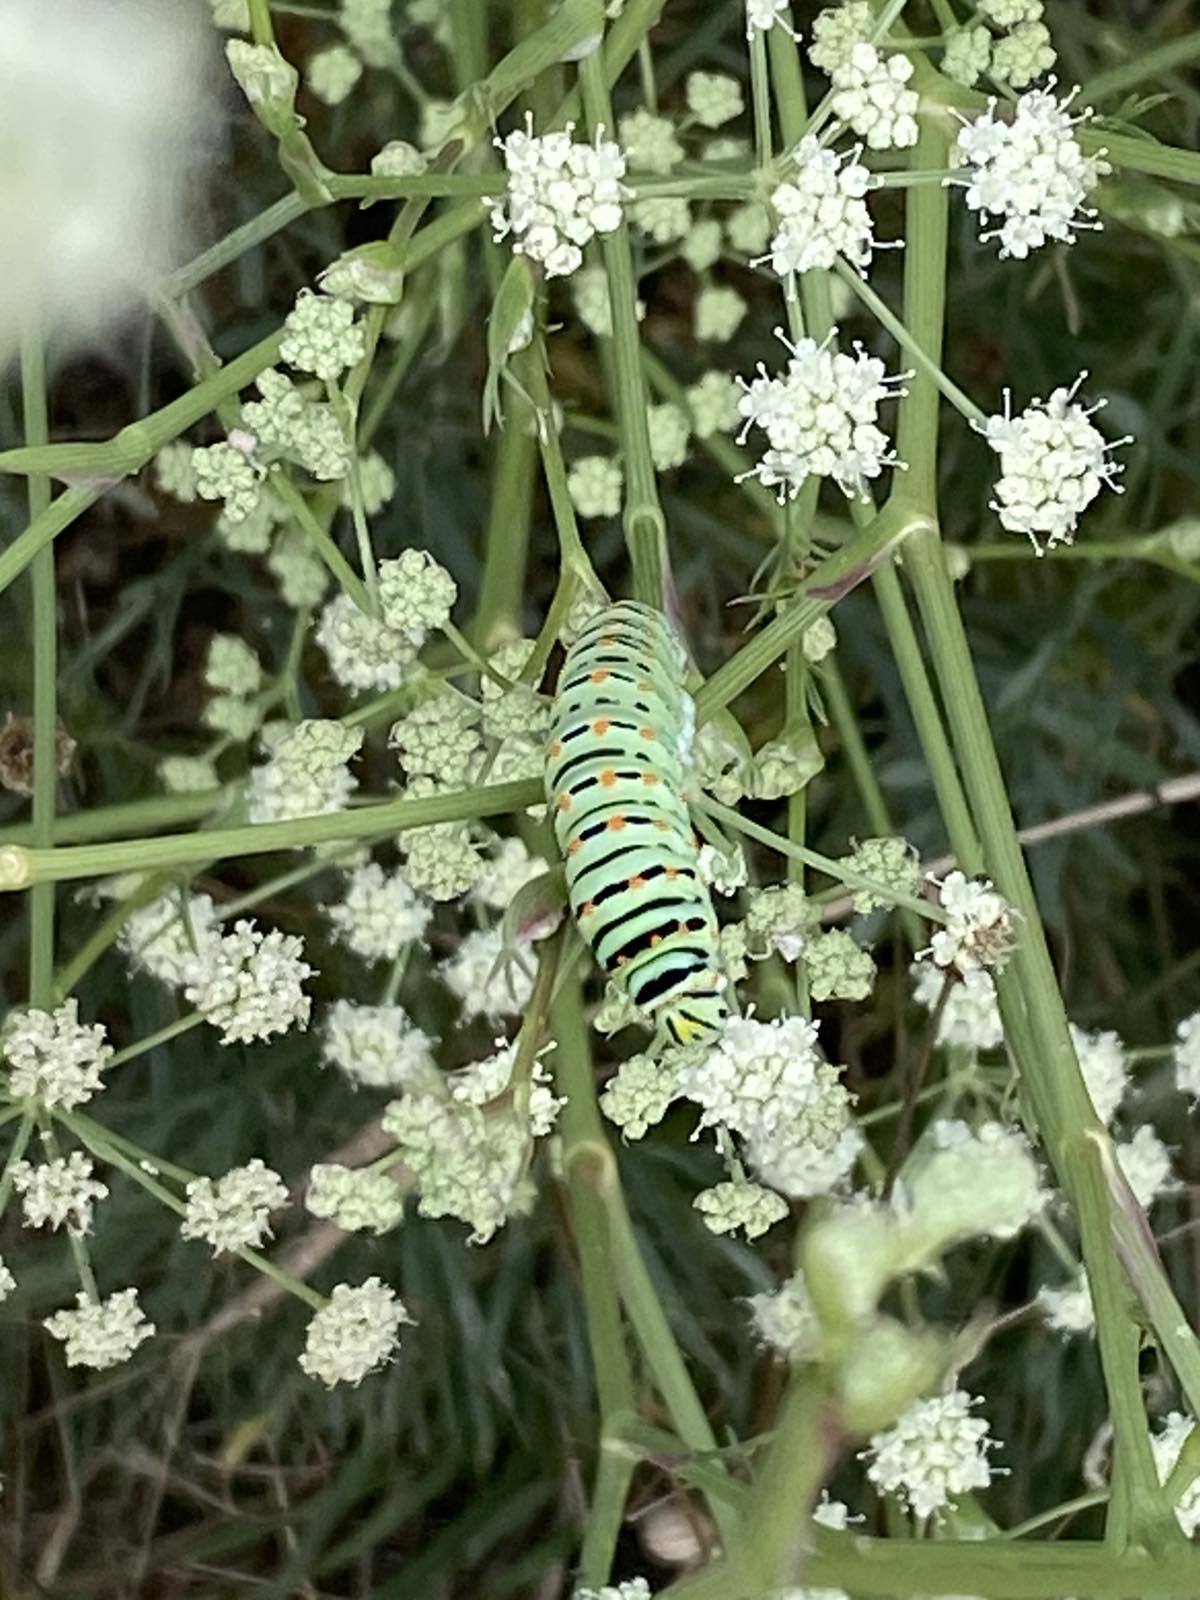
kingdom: Animalia
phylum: Arthropoda
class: Insecta
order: Lepidoptera
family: Papilionidae
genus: Papilio
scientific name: Papilio machaon
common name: Swallowtail
